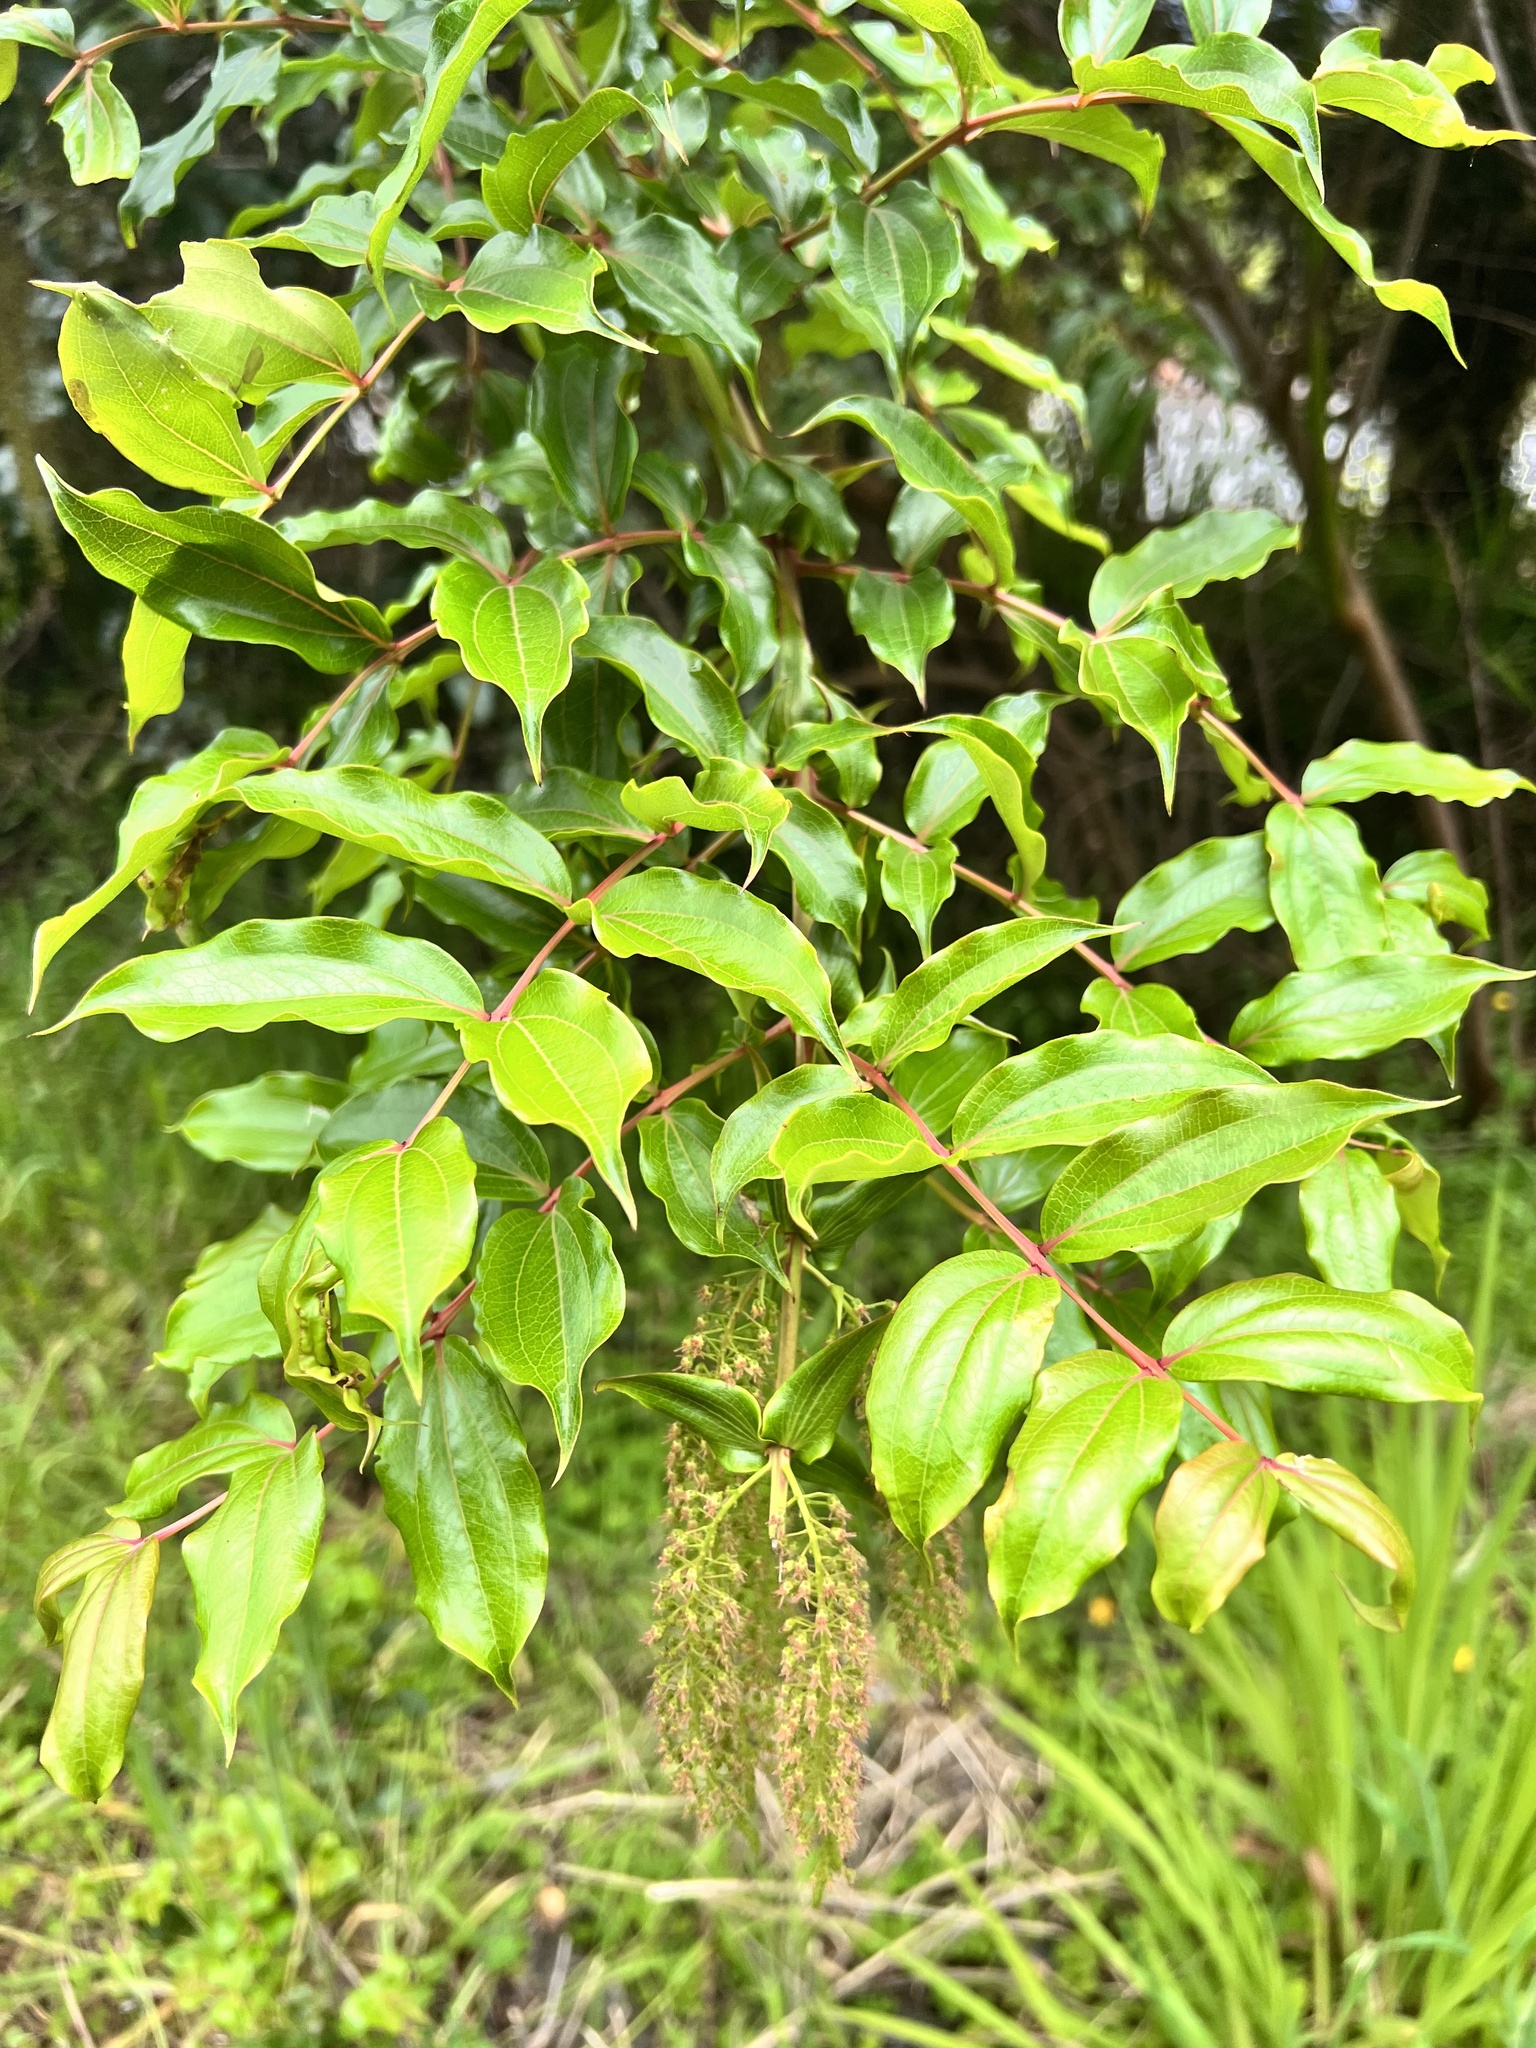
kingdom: Plantae
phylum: Tracheophyta
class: Magnoliopsida
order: Cucurbitales
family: Coriariaceae
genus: Coriaria
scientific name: Coriaria arborea
